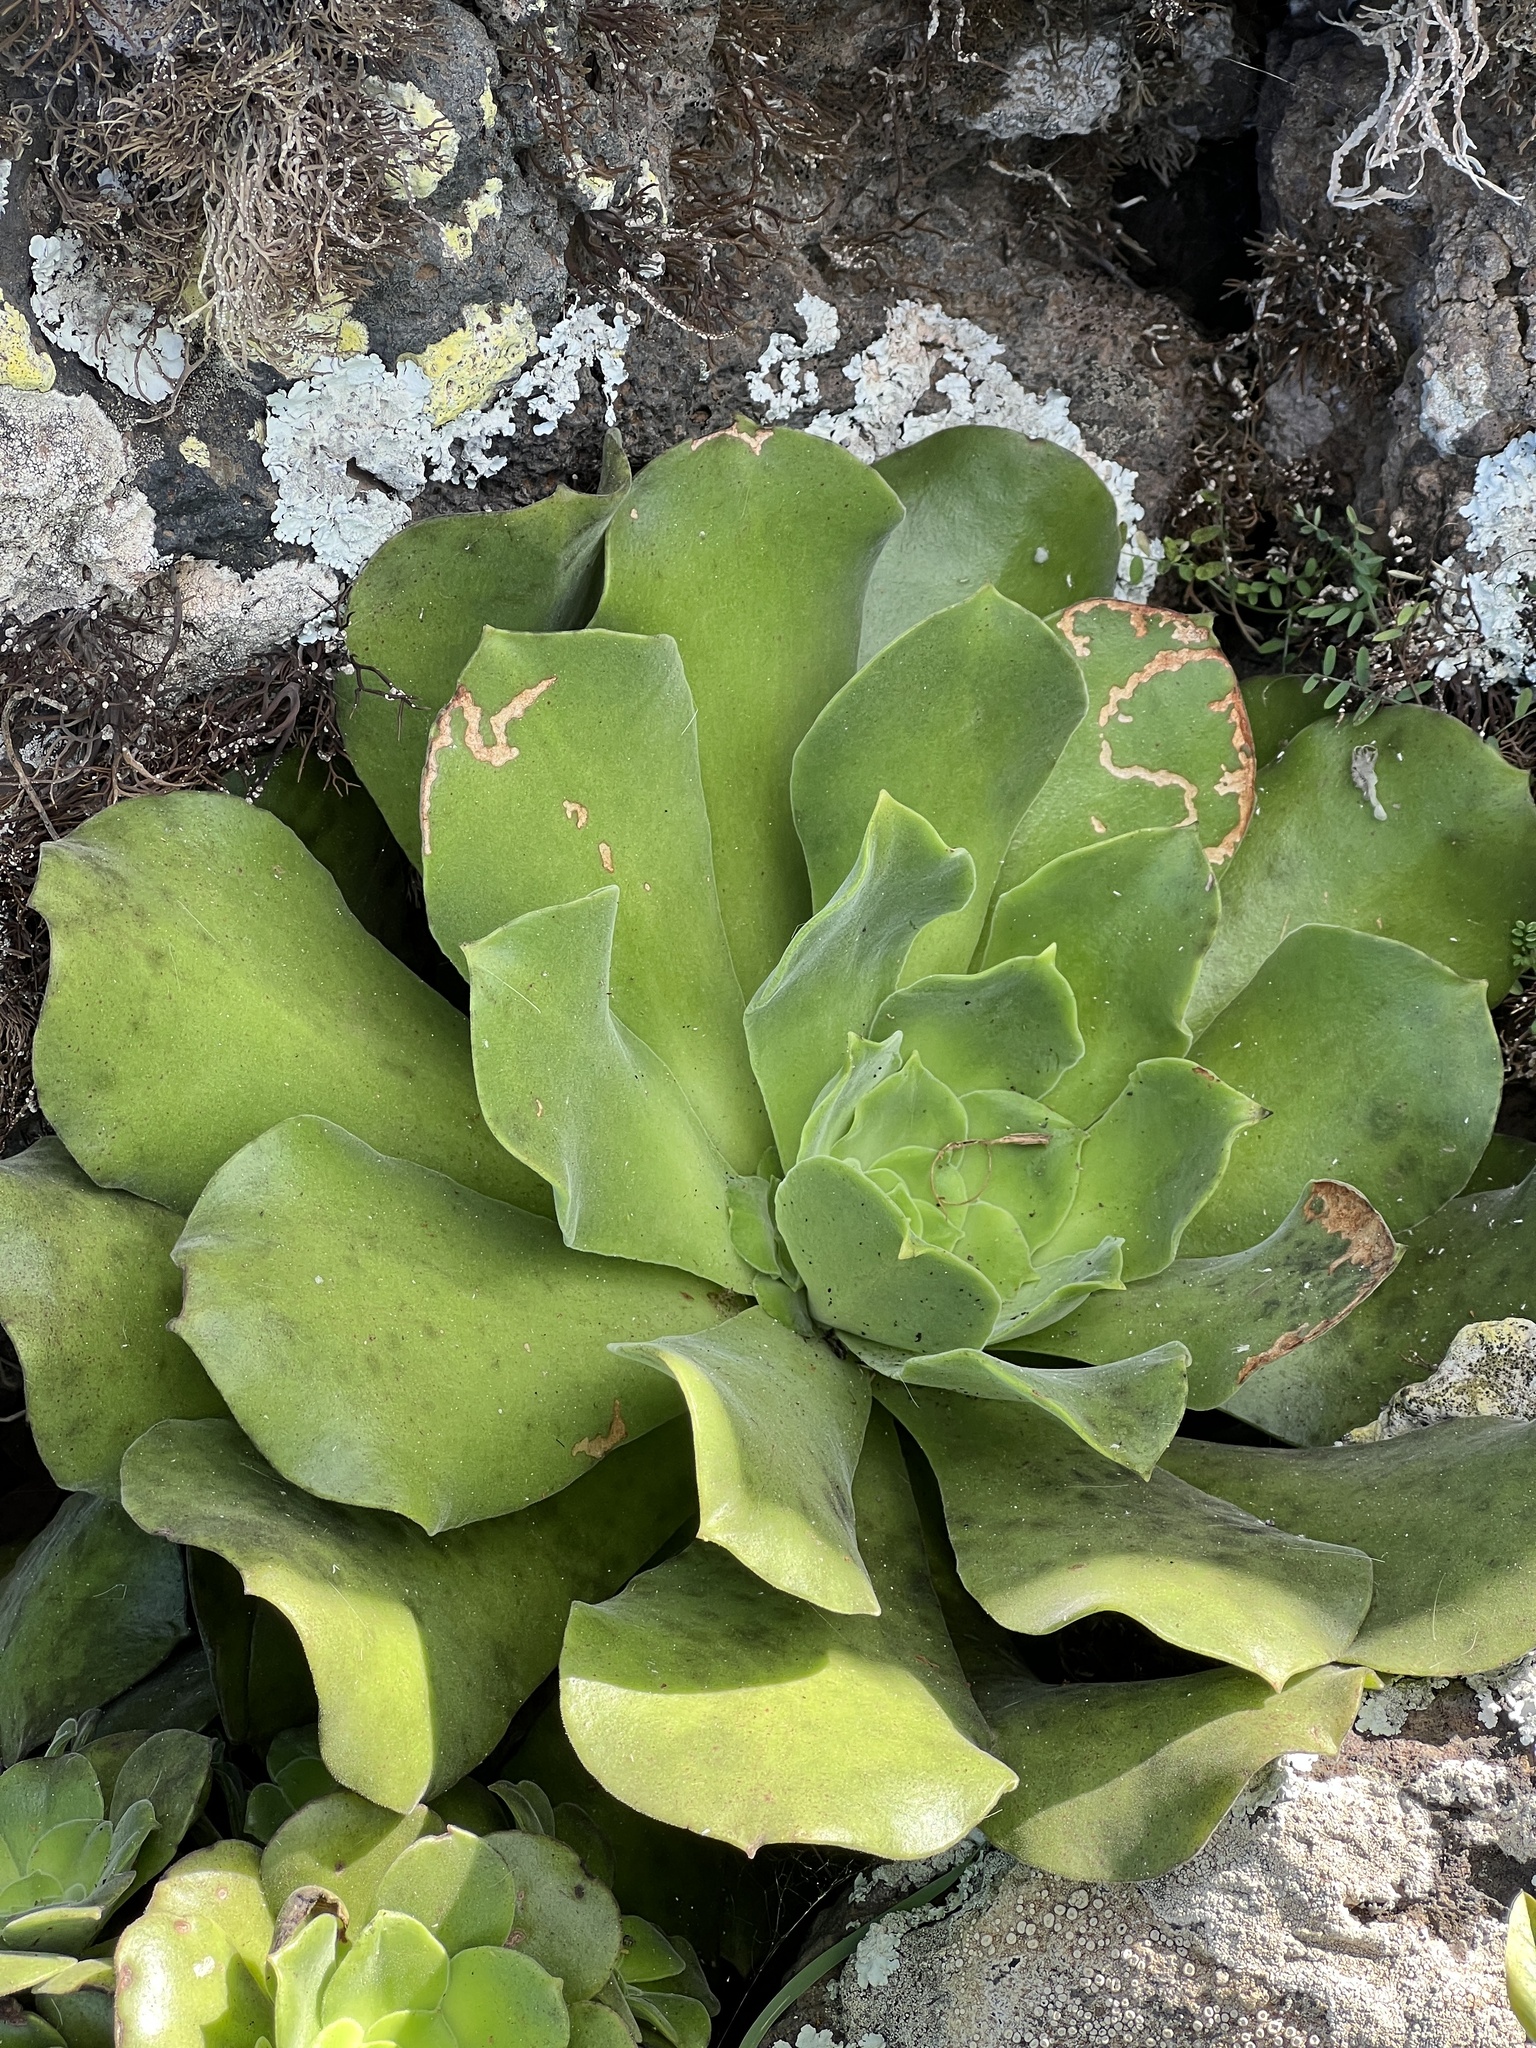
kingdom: Plantae
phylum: Tracheophyta
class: Magnoliopsida
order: Saxifragales
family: Crassulaceae
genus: Aeonium
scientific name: Aeonium canariense
